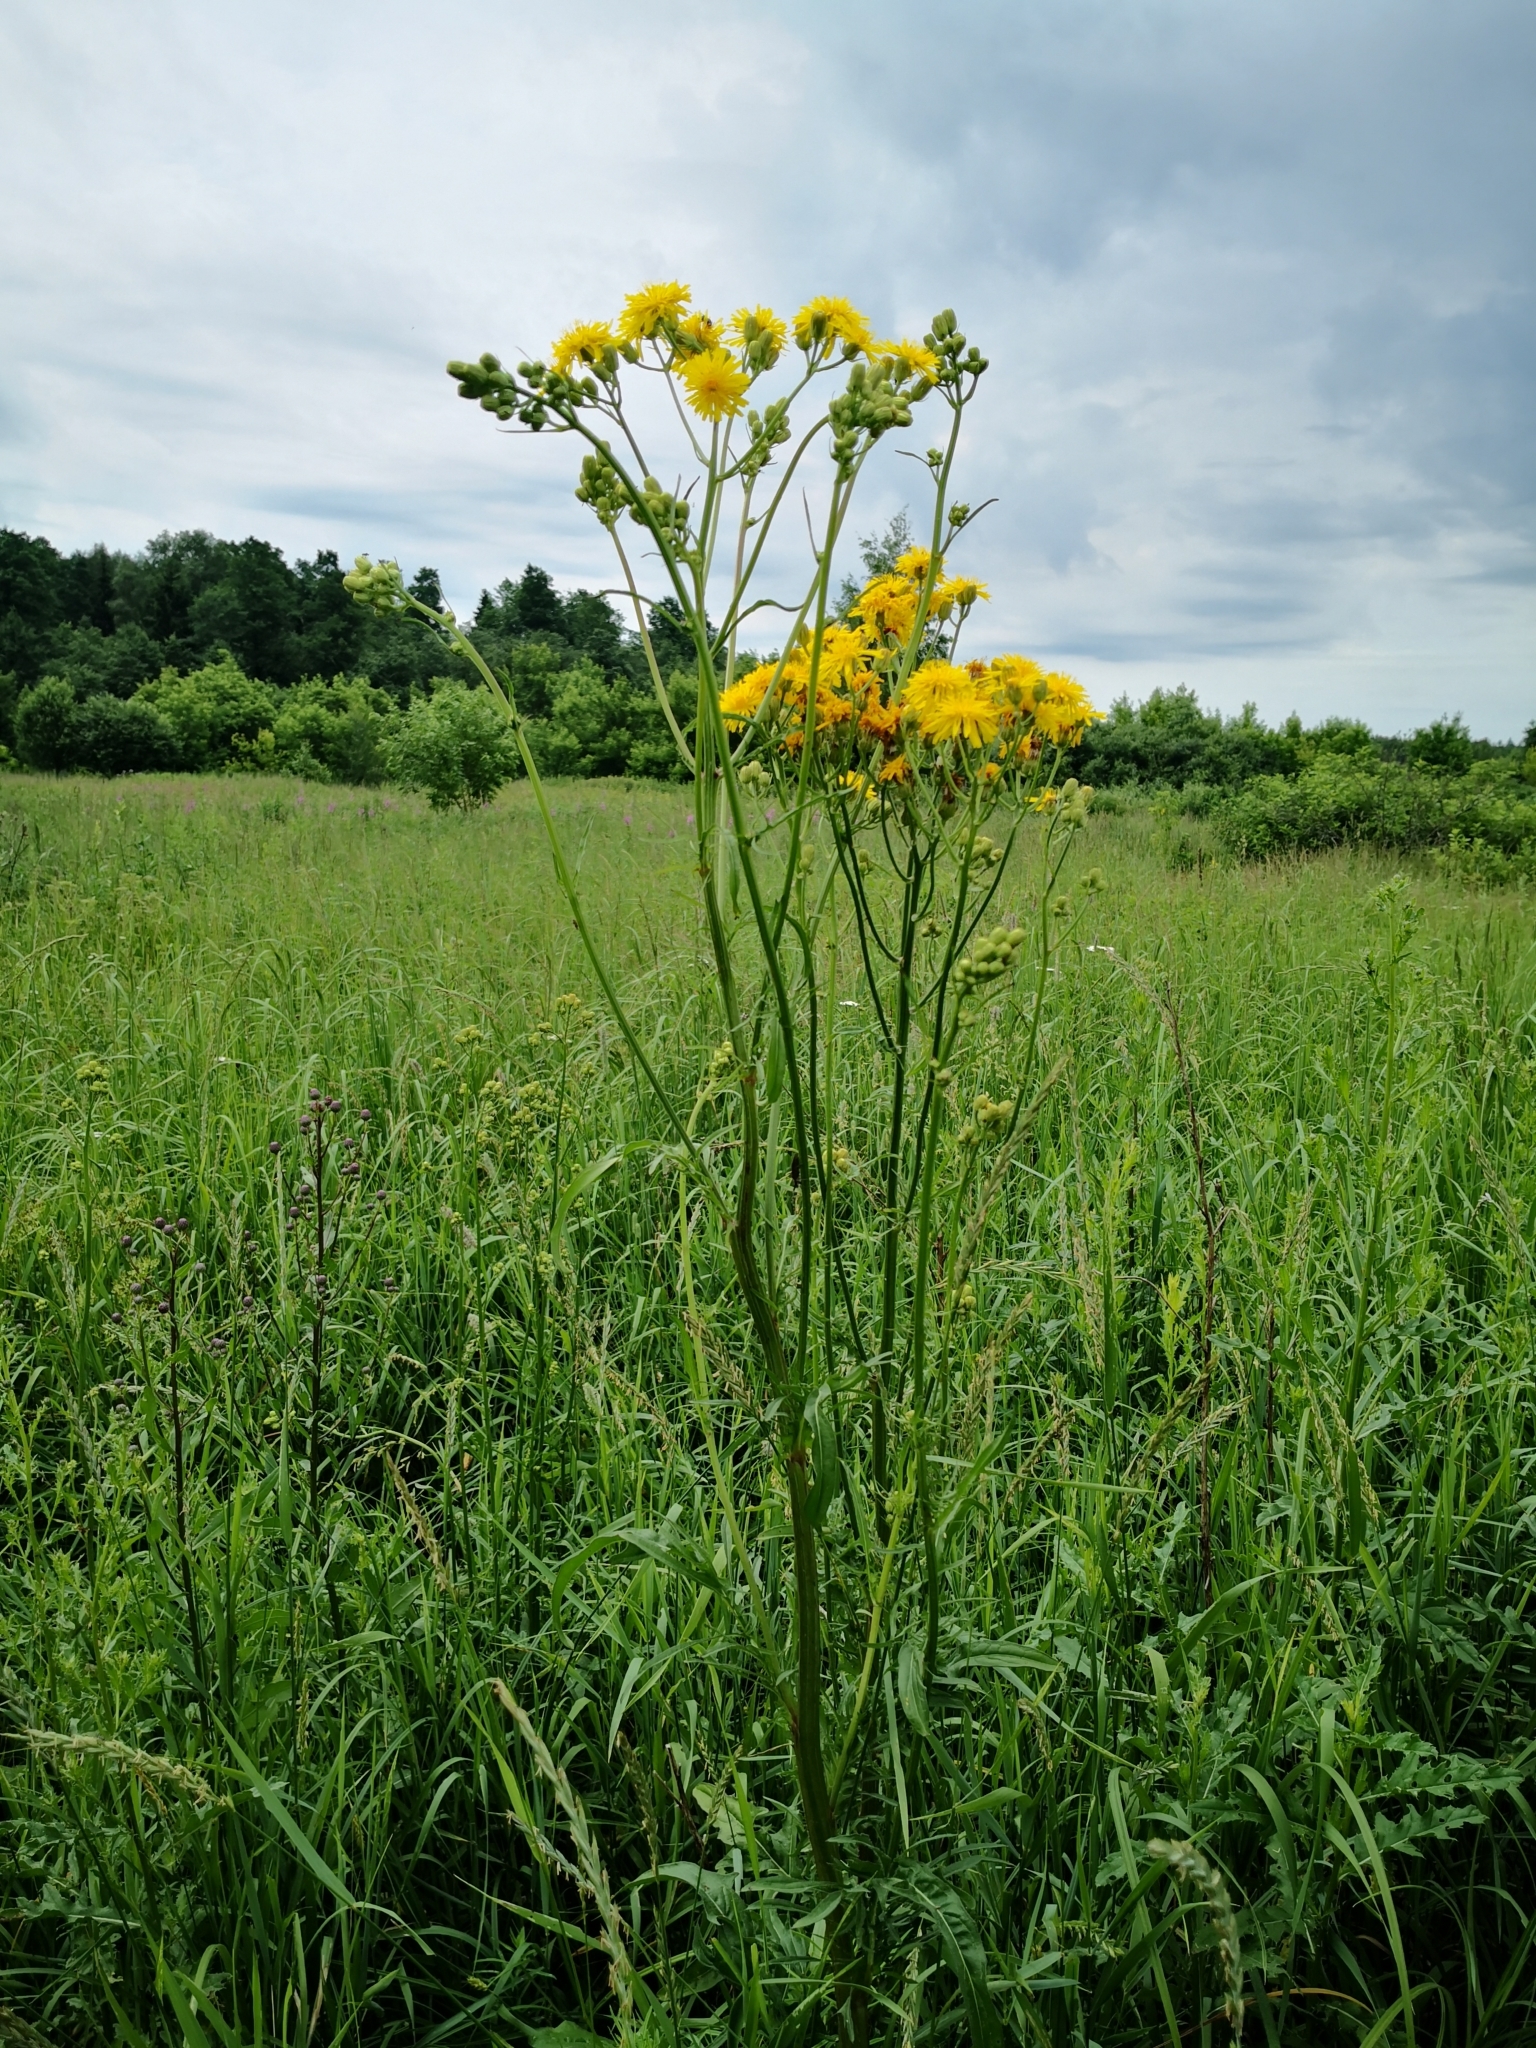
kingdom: Plantae
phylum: Tracheophyta
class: Magnoliopsida
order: Asterales
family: Asteraceae
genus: Crepis
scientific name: Crepis biennis
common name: Rough hawk's-beard
